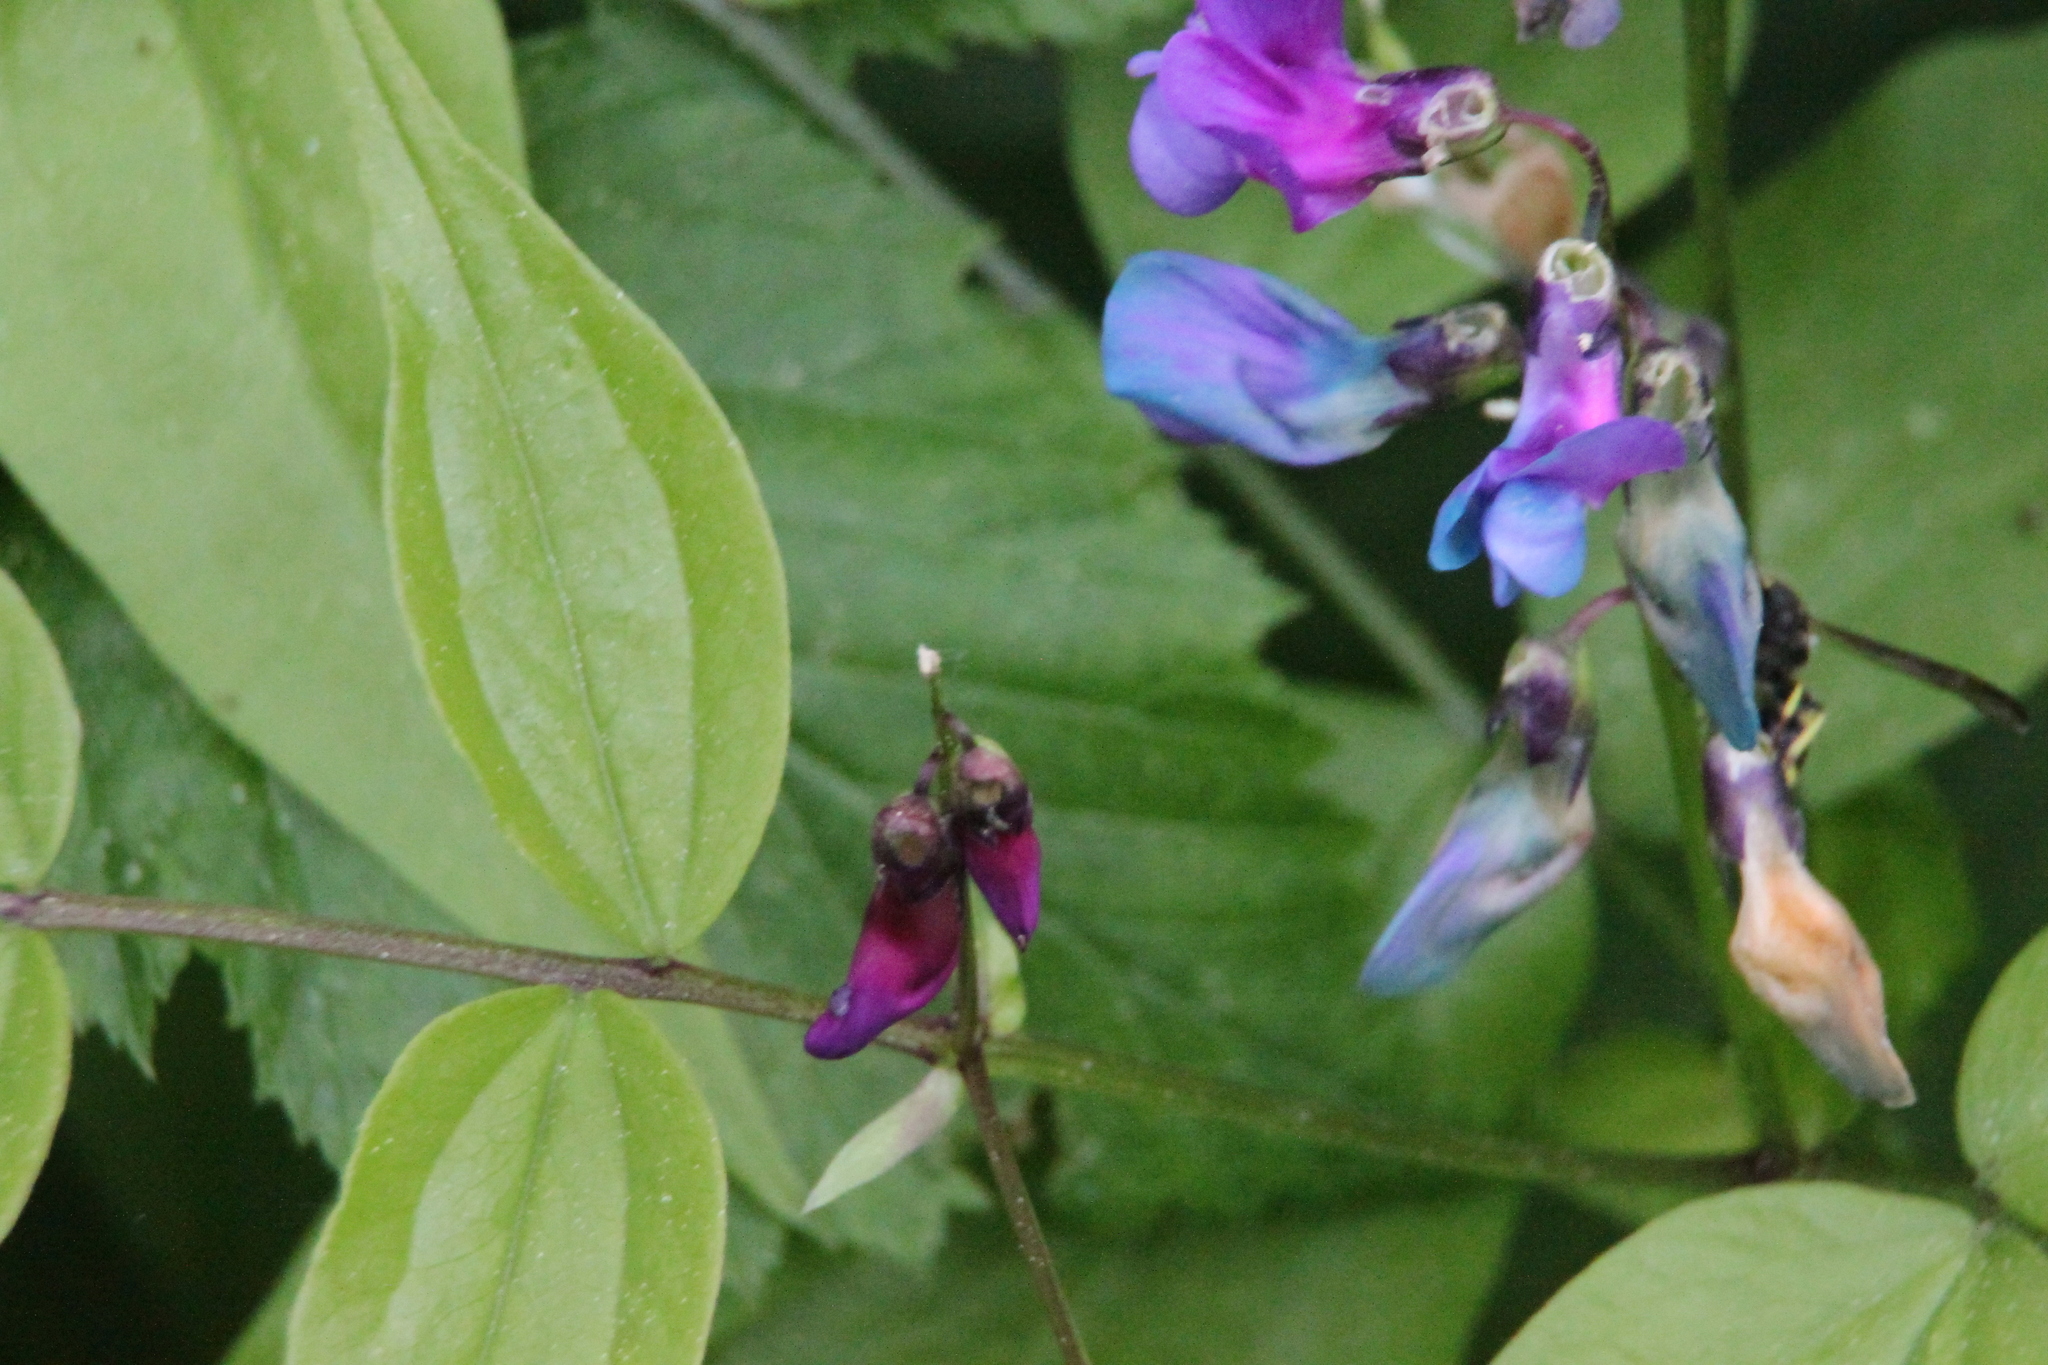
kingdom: Plantae
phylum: Tracheophyta
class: Magnoliopsida
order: Fabales
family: Fabaceae
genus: Lathyrus
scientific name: Lathyrus vernus
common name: Spring pea
